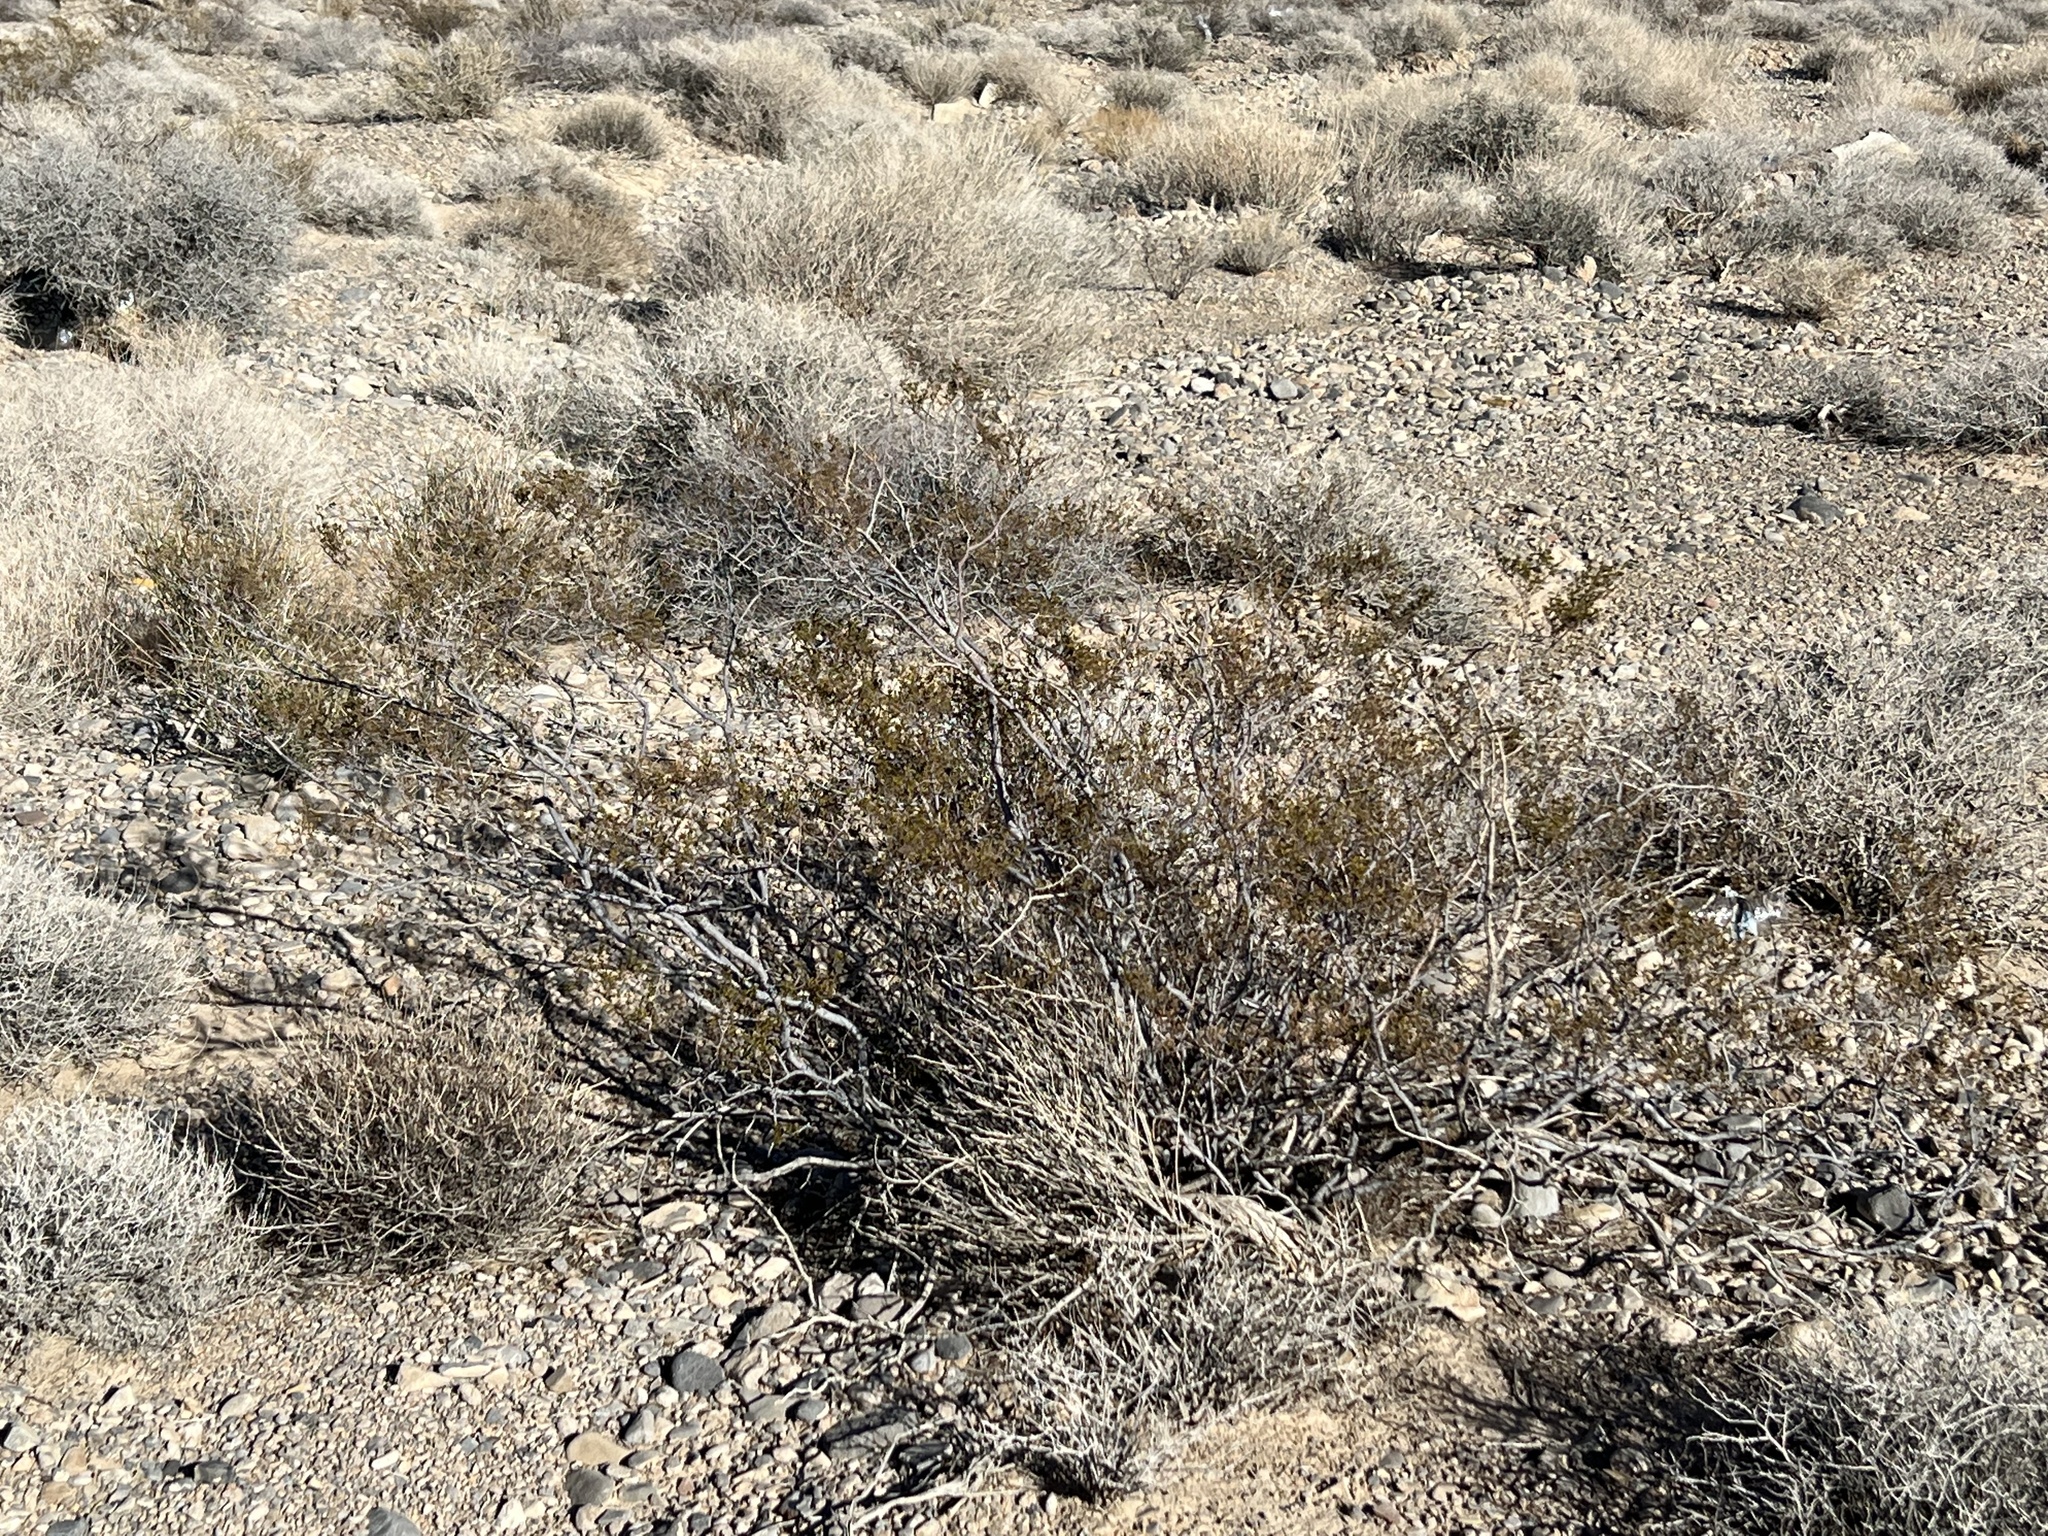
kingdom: Plantae
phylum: Tracheophyta
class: Magnoliopsida
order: Zygophyllales
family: Zygophyllaceae
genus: Larrea
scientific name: Larrea tridentata
